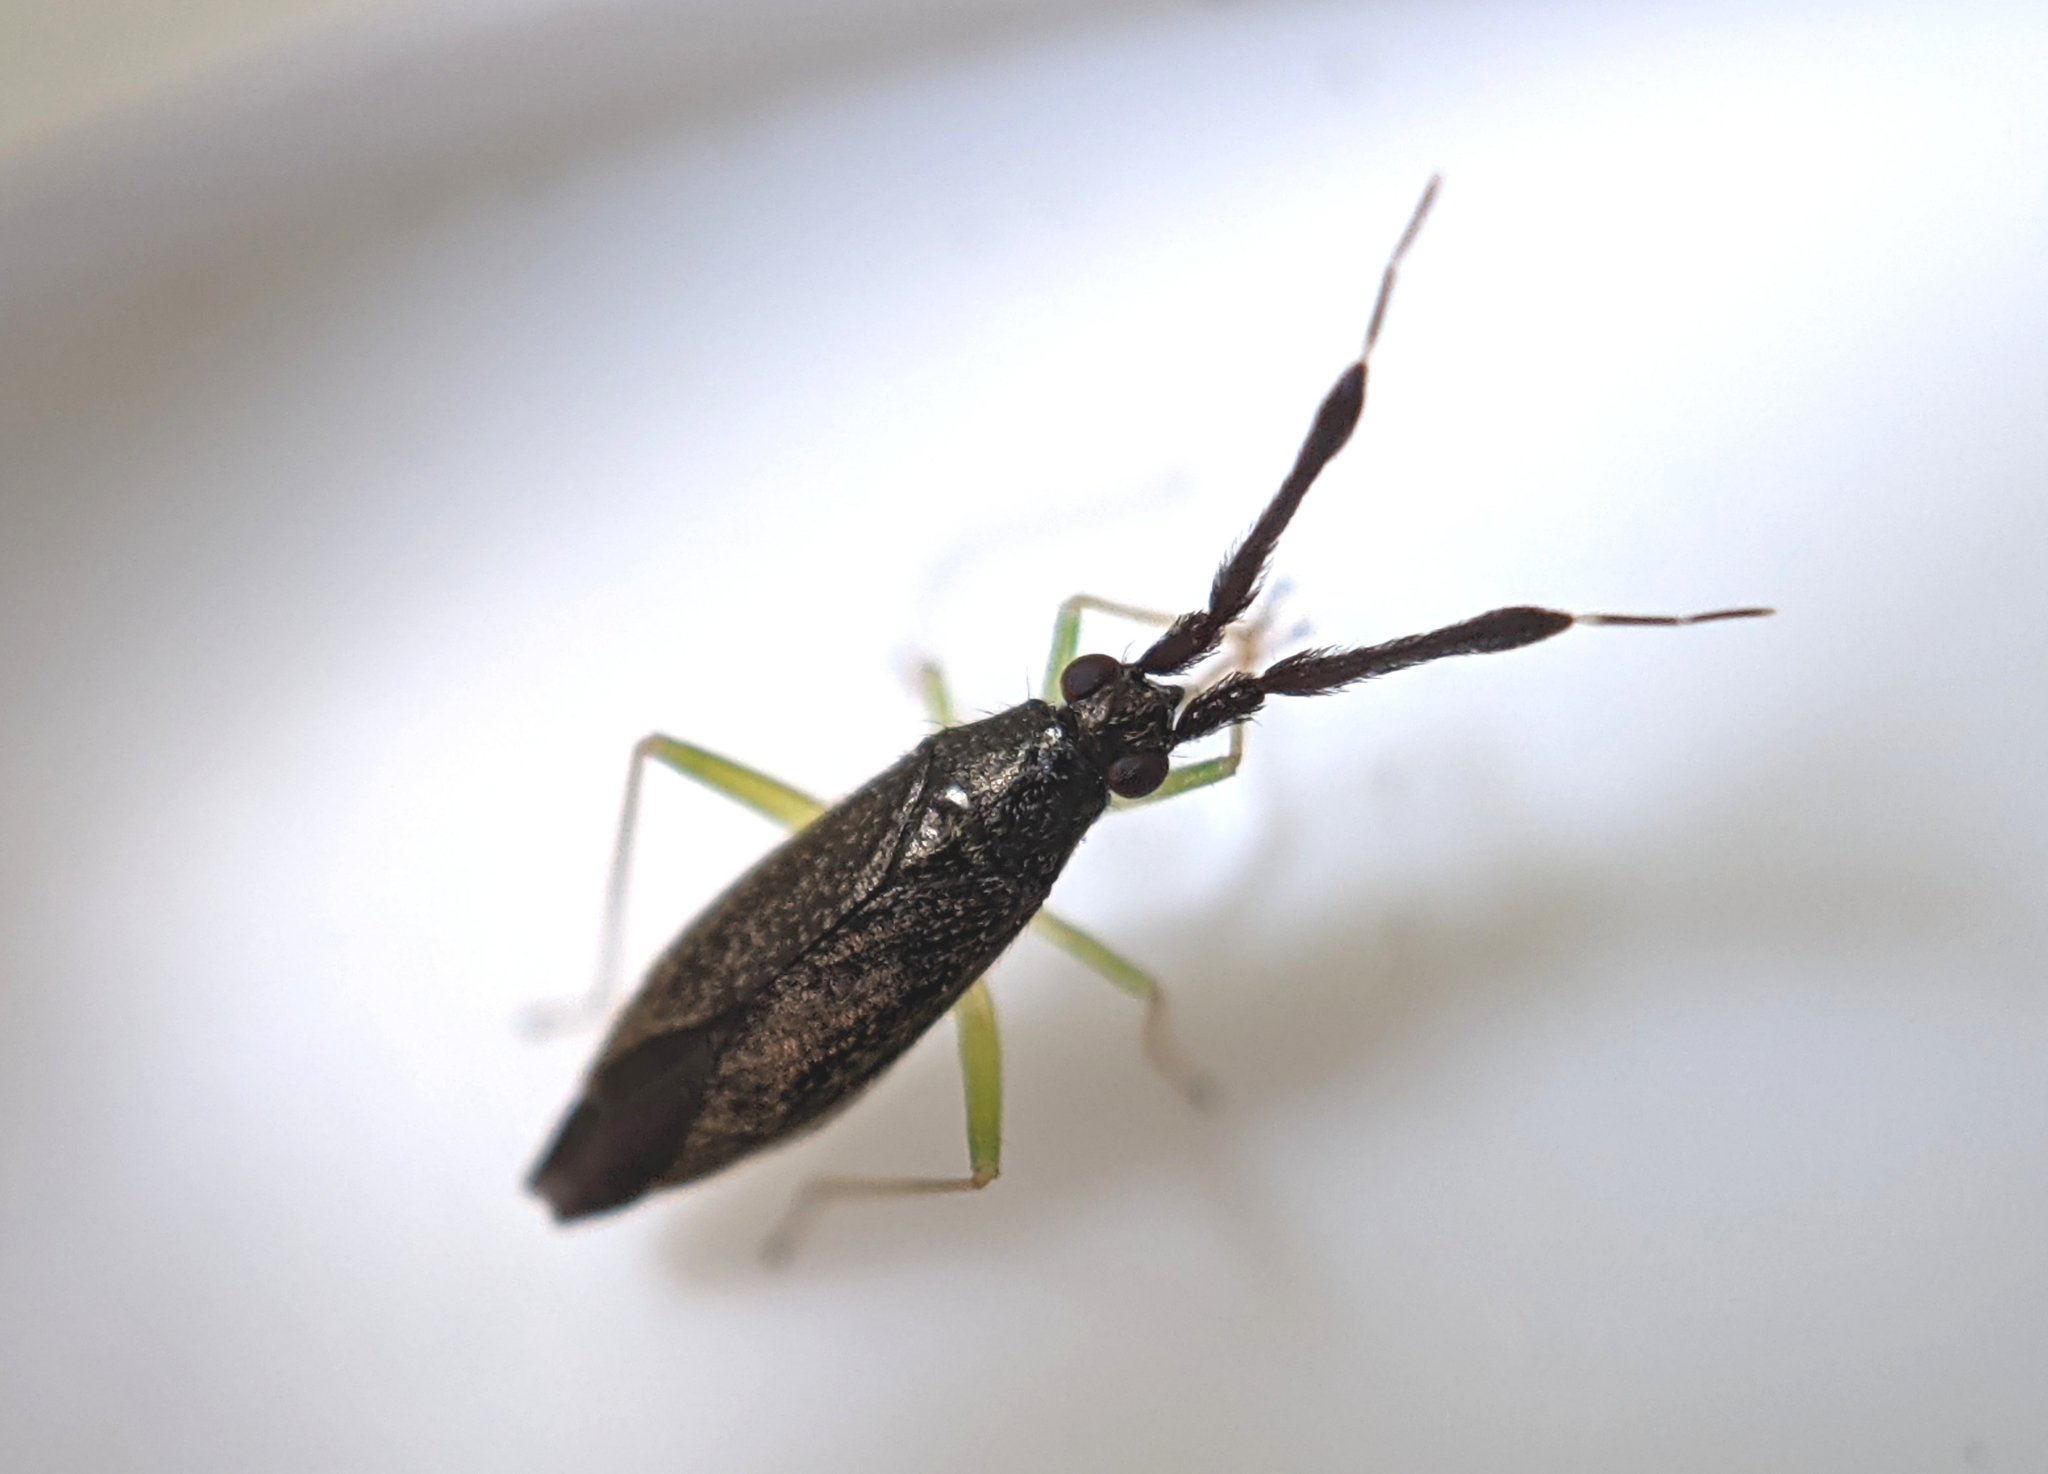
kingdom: Animalia
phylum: Arthropoda
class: Insecta
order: Hemiptera
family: Miridae
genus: Heterotoma
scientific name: Heterotoma planicornis
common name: Plant bug
